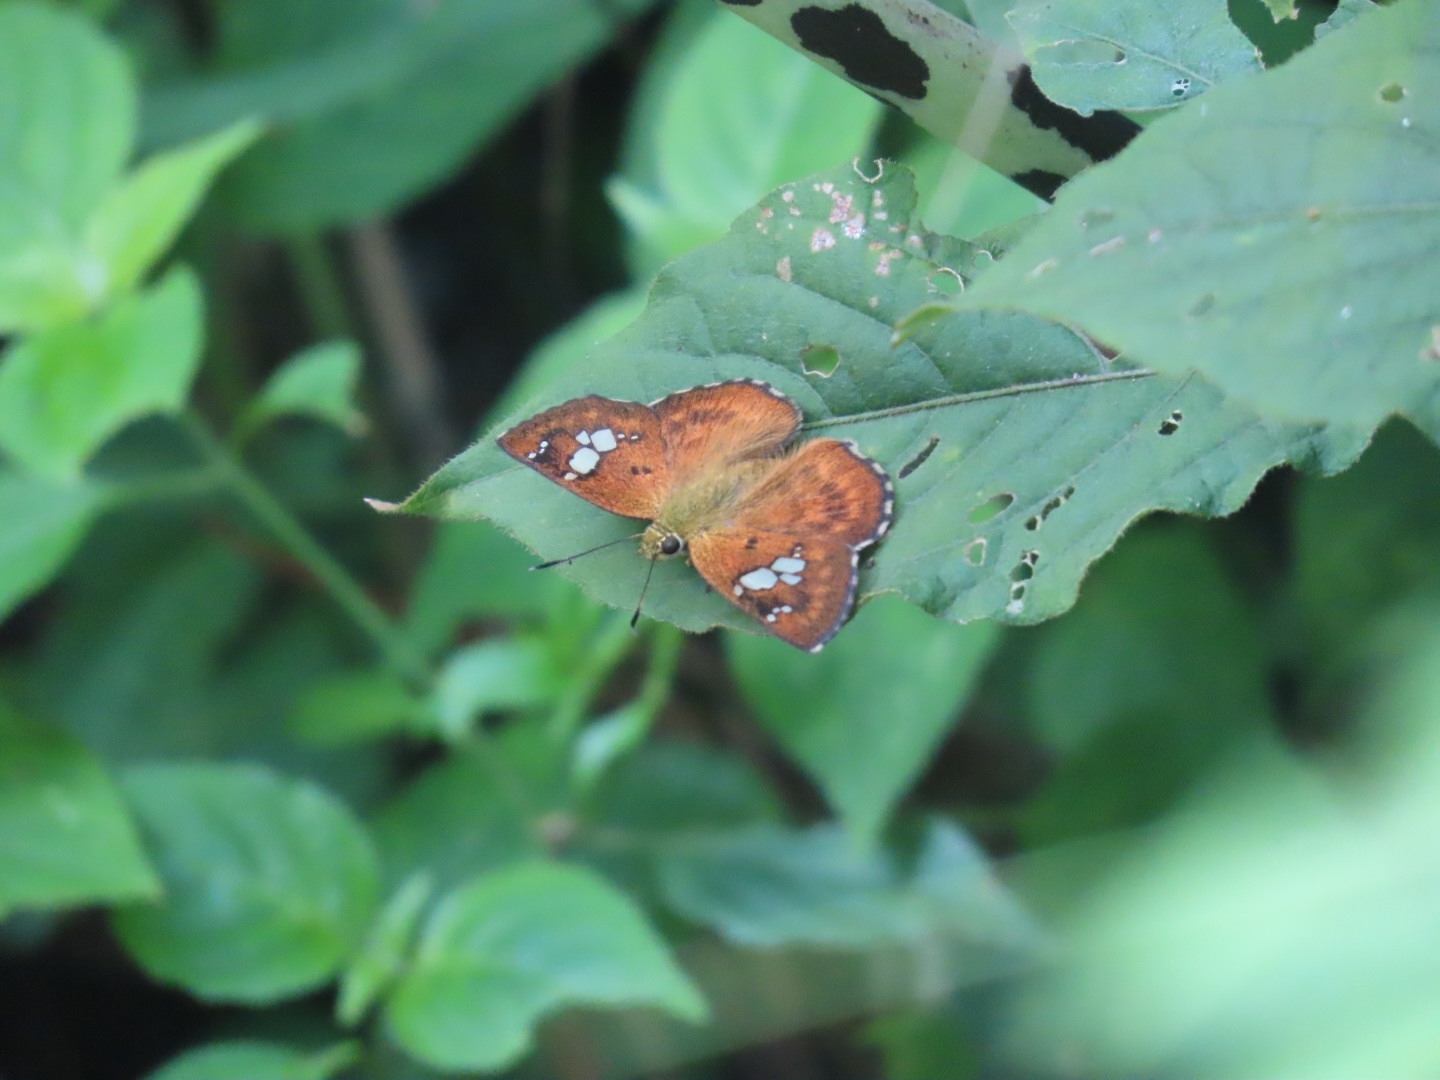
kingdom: Animalia
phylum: Arthropoda
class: Insecta
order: Lepidoptera
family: Hesperiidae
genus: Pseudocoladenia
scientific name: Pseudocoladenia dan
